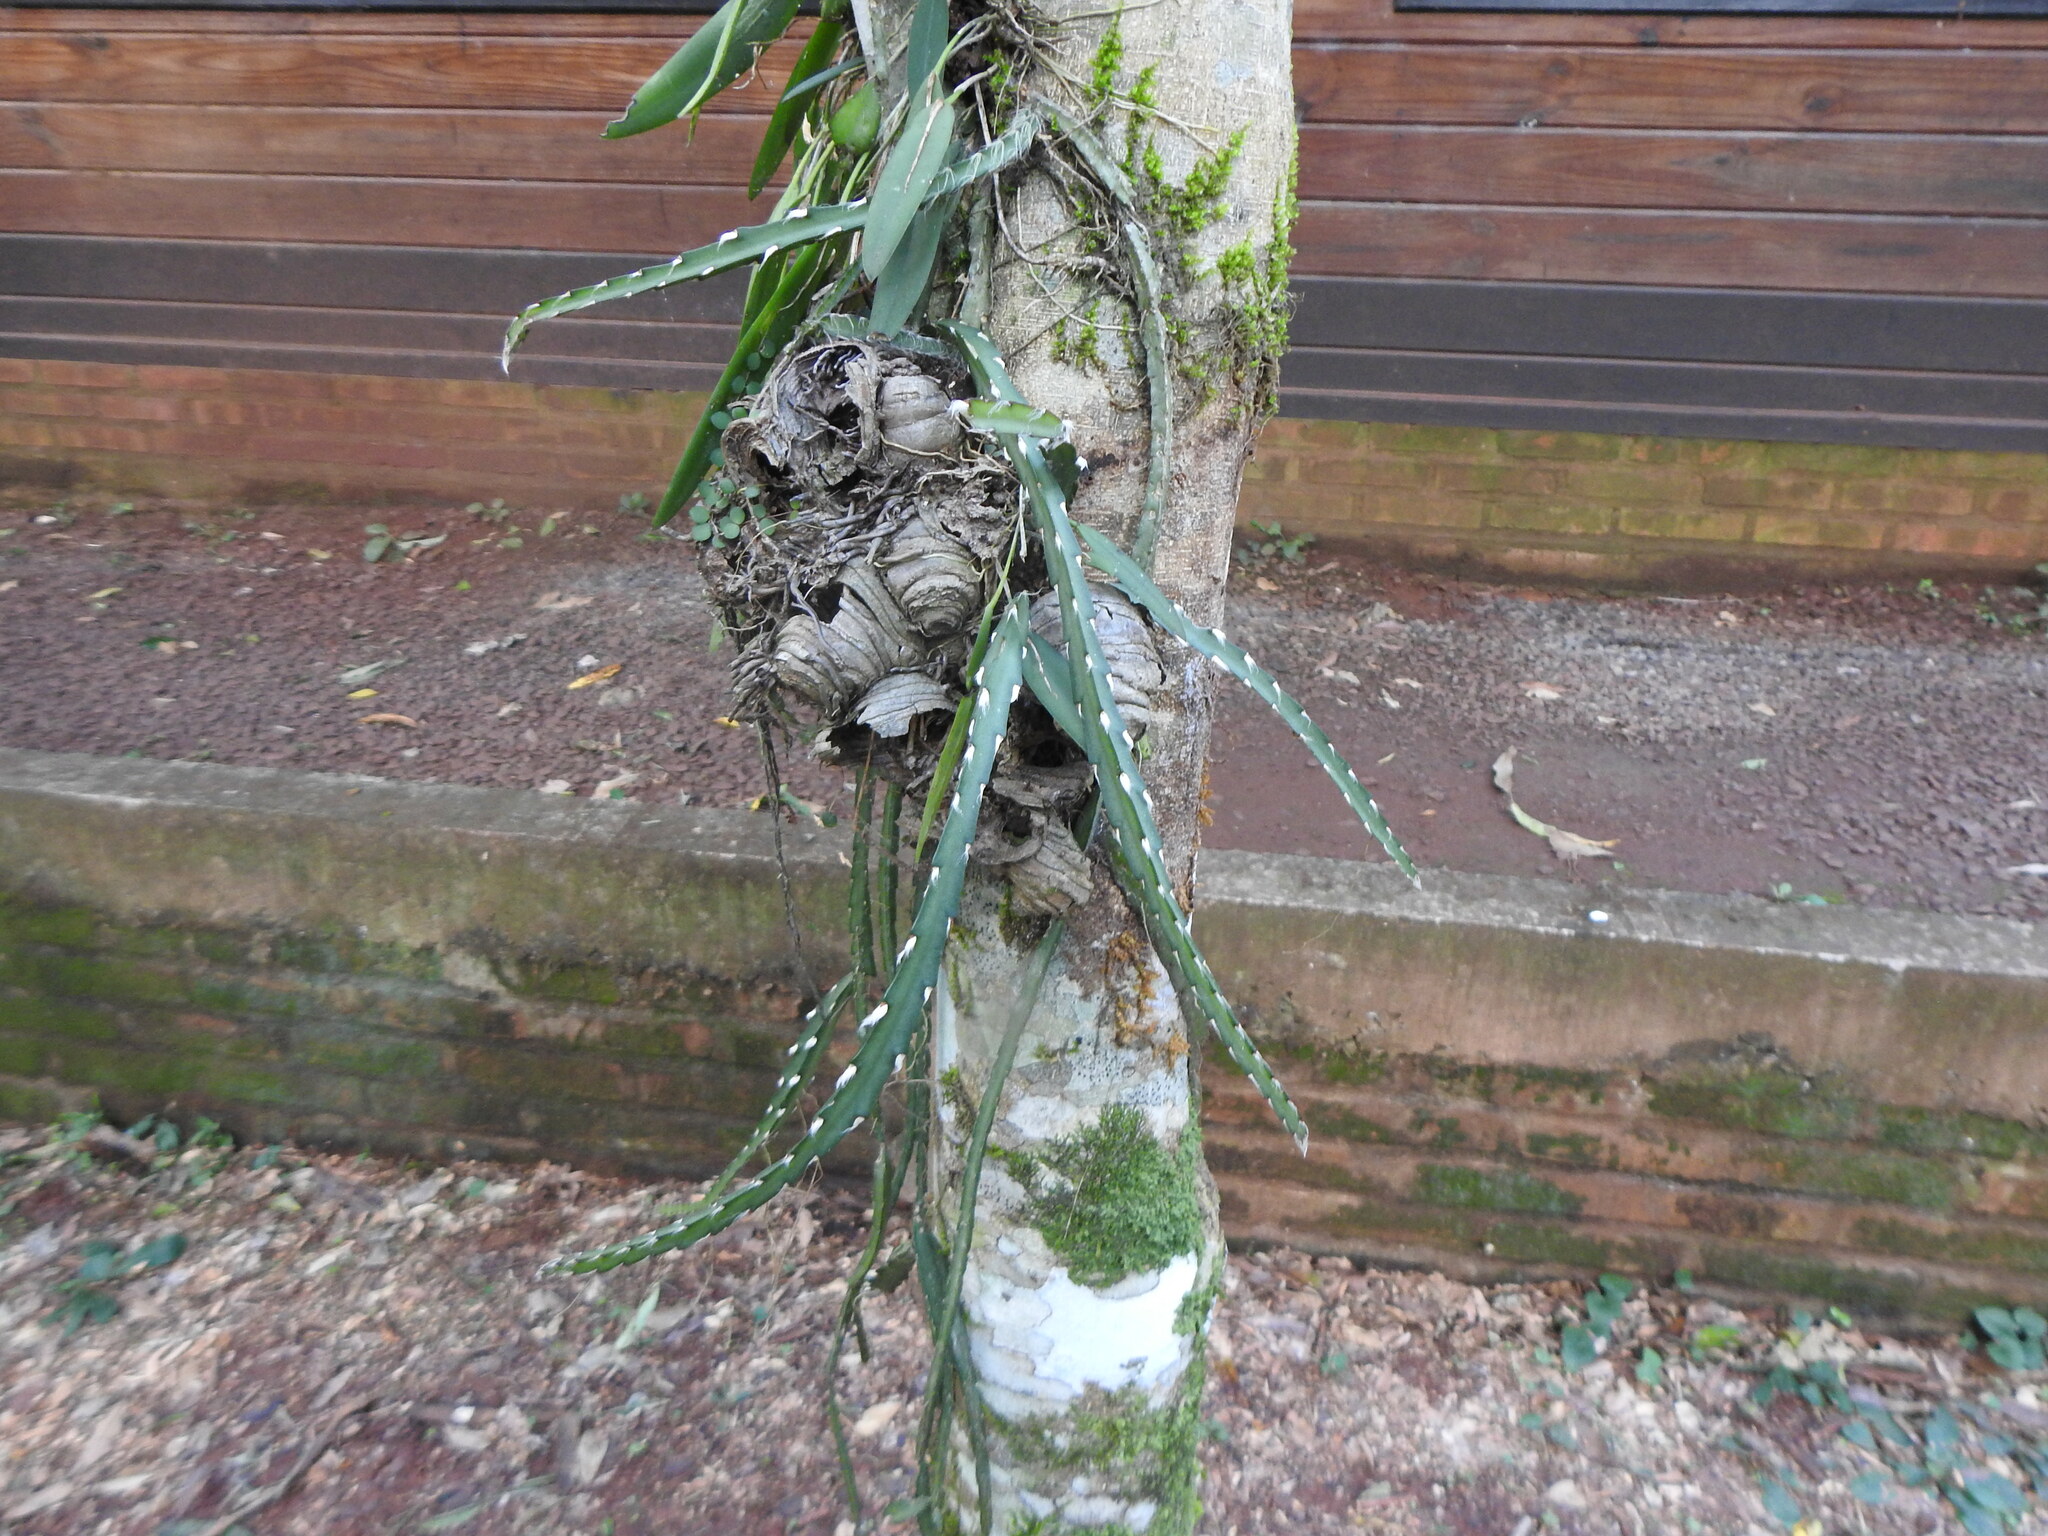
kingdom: Plantae
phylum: Tracheophyta
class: Magnoliopsida
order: Caryophyllales
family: Cactaceae
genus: Lepismium
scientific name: Lepismium cruciforme
